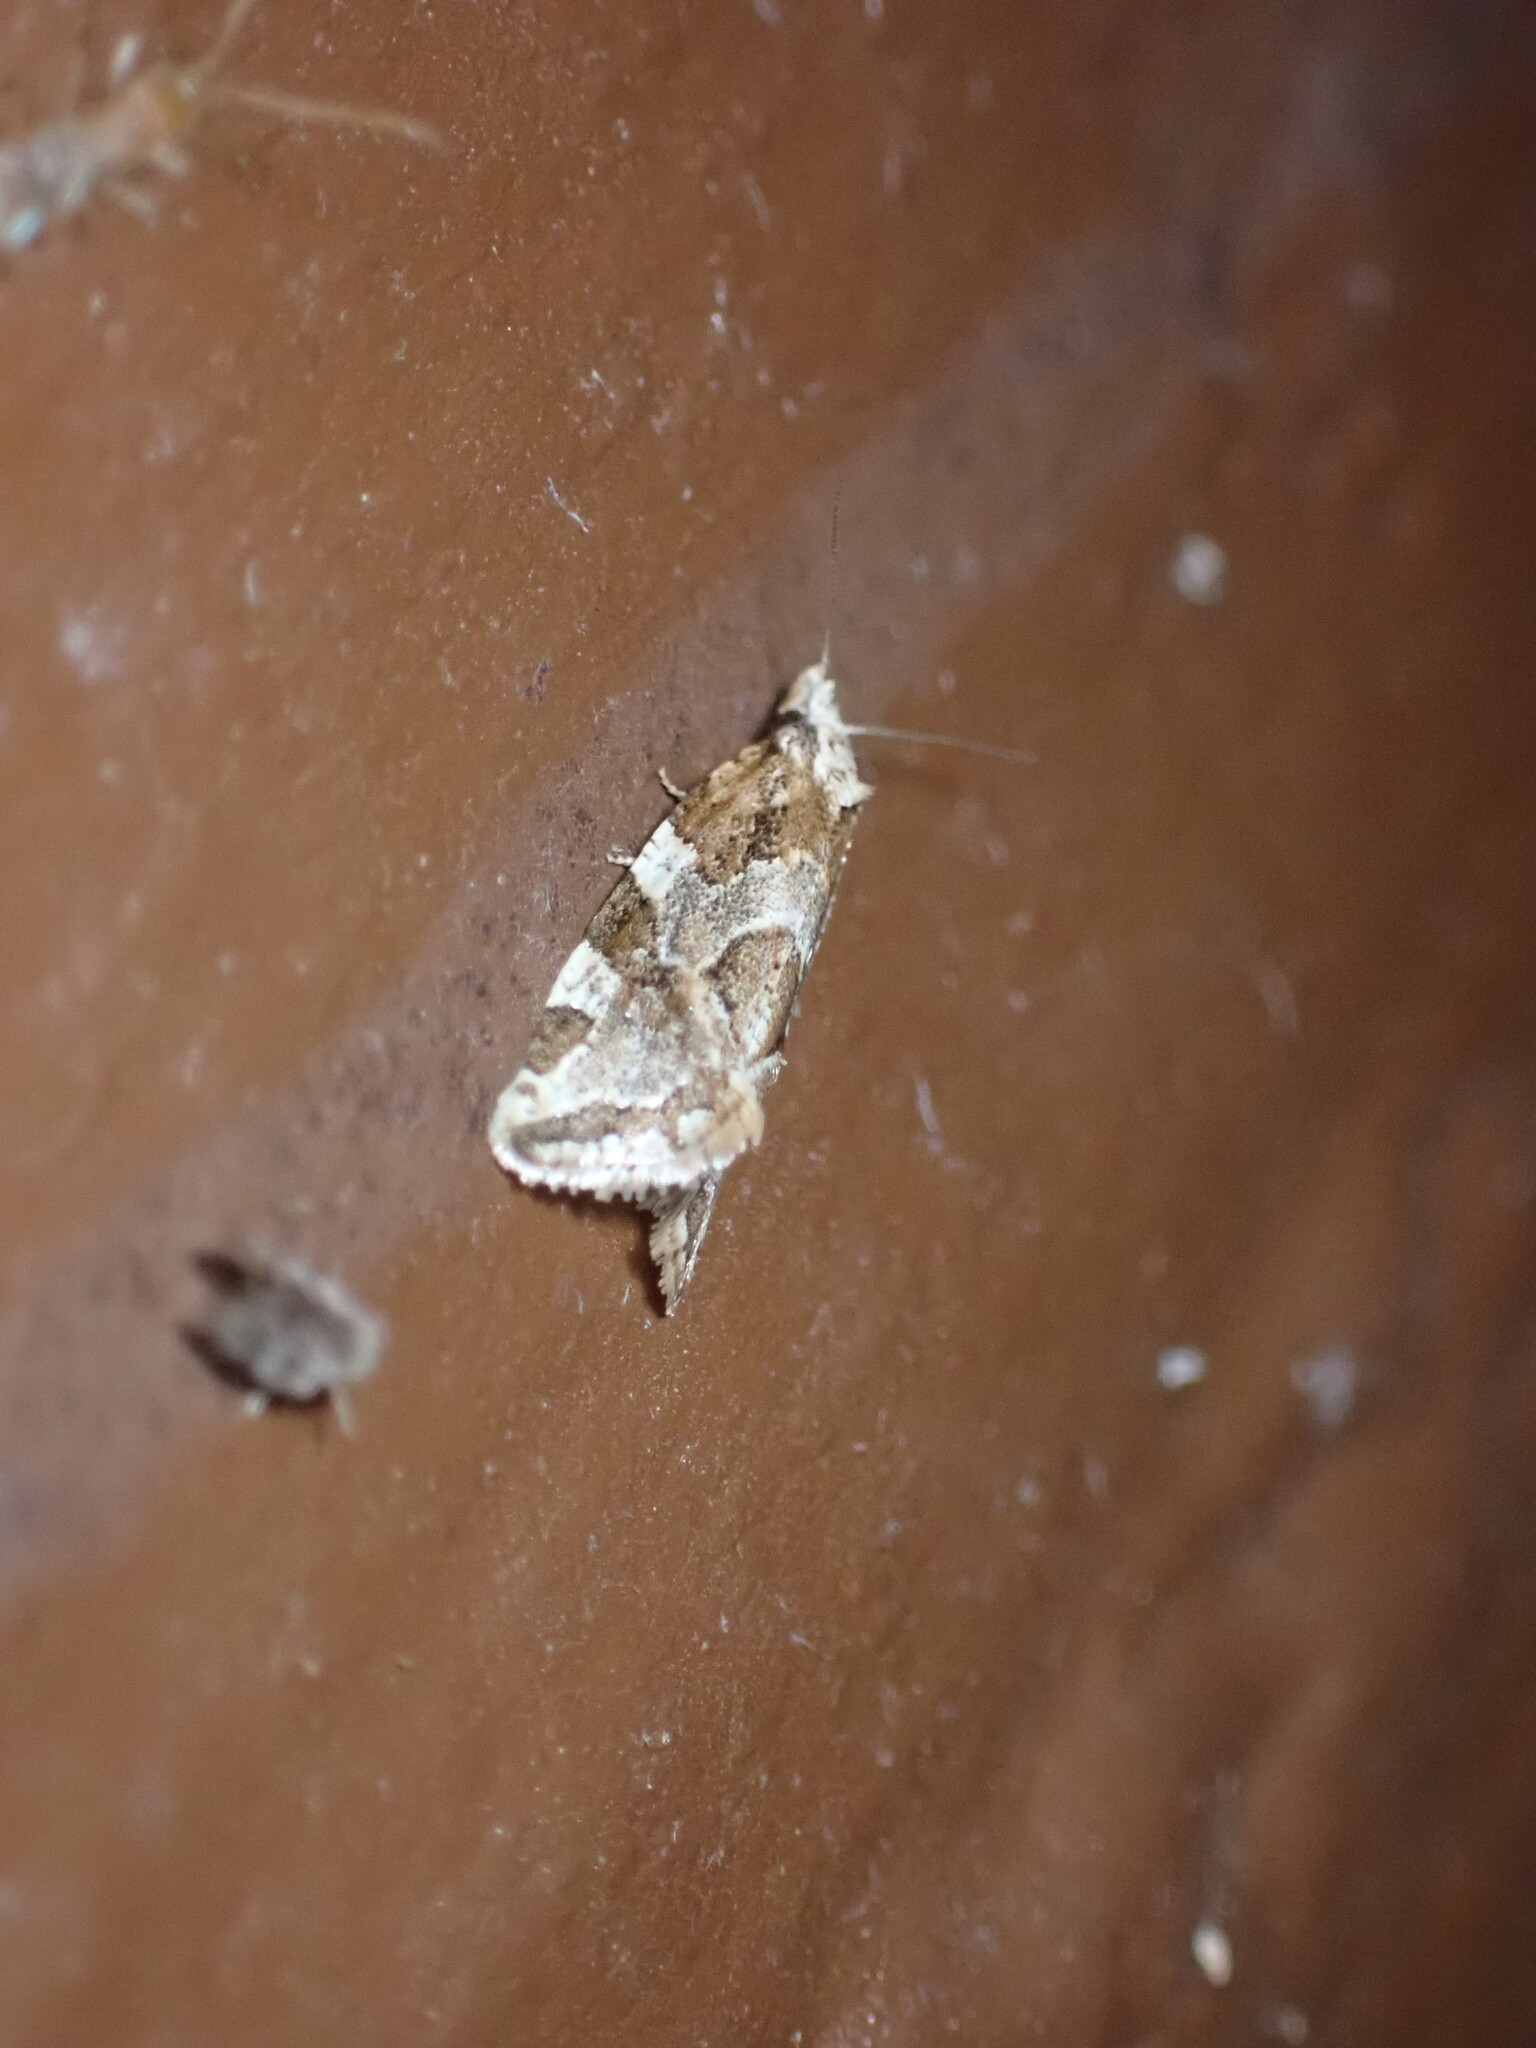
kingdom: Animalia
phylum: Arthropoda
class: Insecta
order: Lepidoptera
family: Tortricidae
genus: Aethes
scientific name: Aethes sexdentata
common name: Six-toothed aethes
